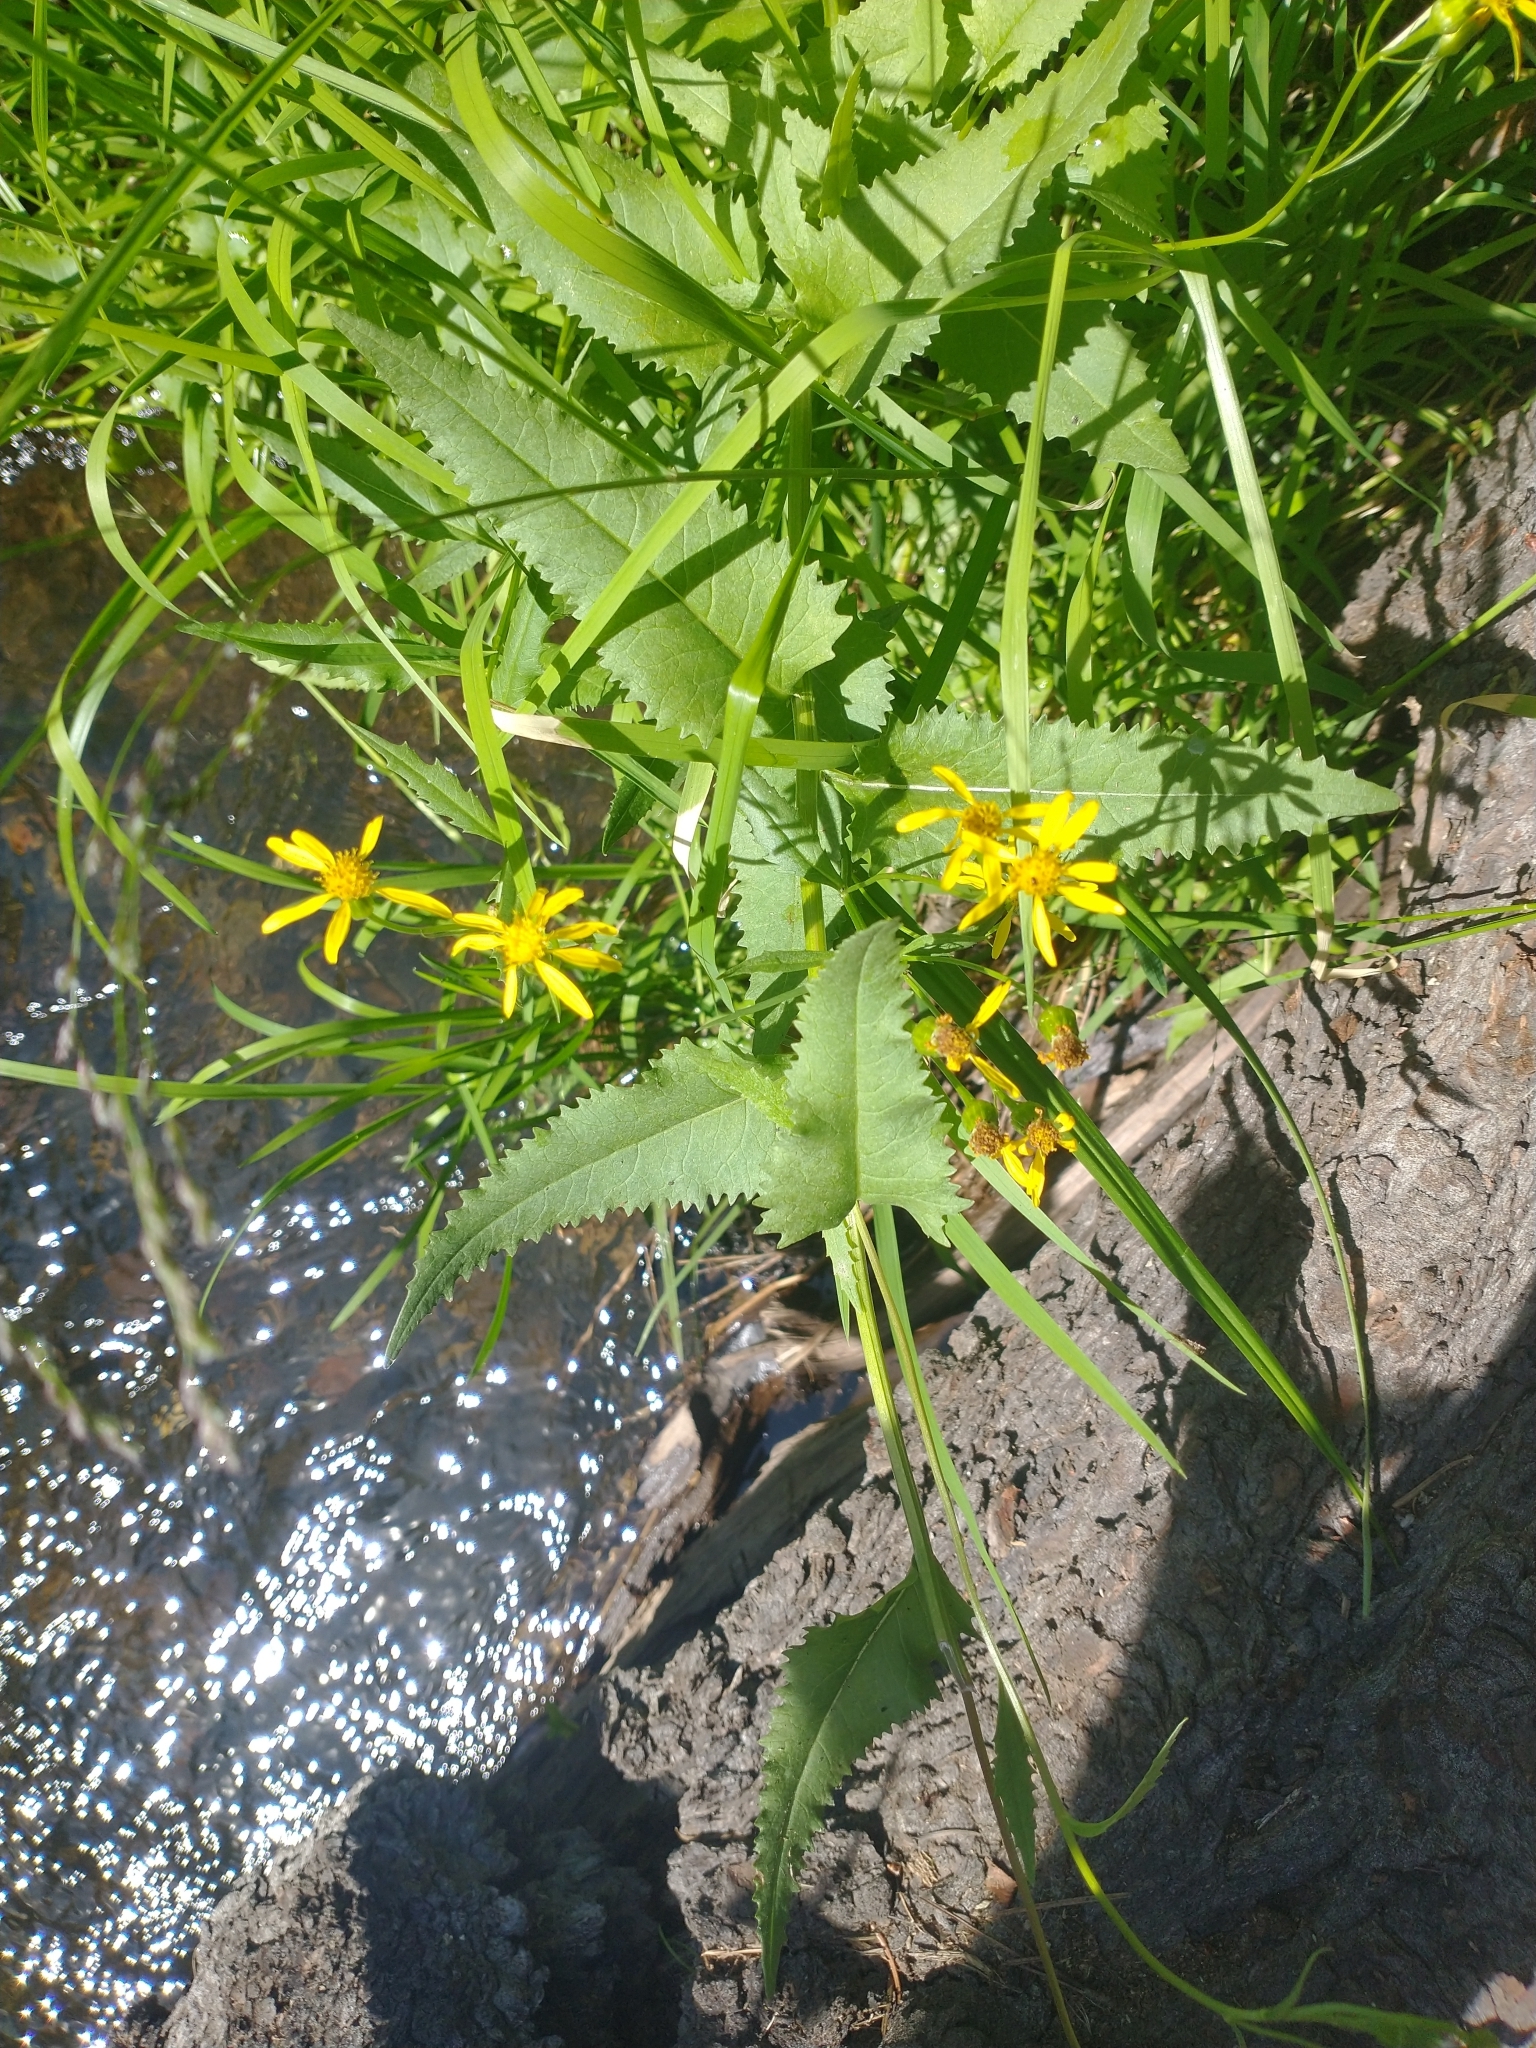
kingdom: Plantae
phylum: Tracheophyta
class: Magnoliopsida
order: Asterales
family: Asteraceae
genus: Senecio
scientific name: Senecio triangularis
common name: Arrowleaf butterweed
